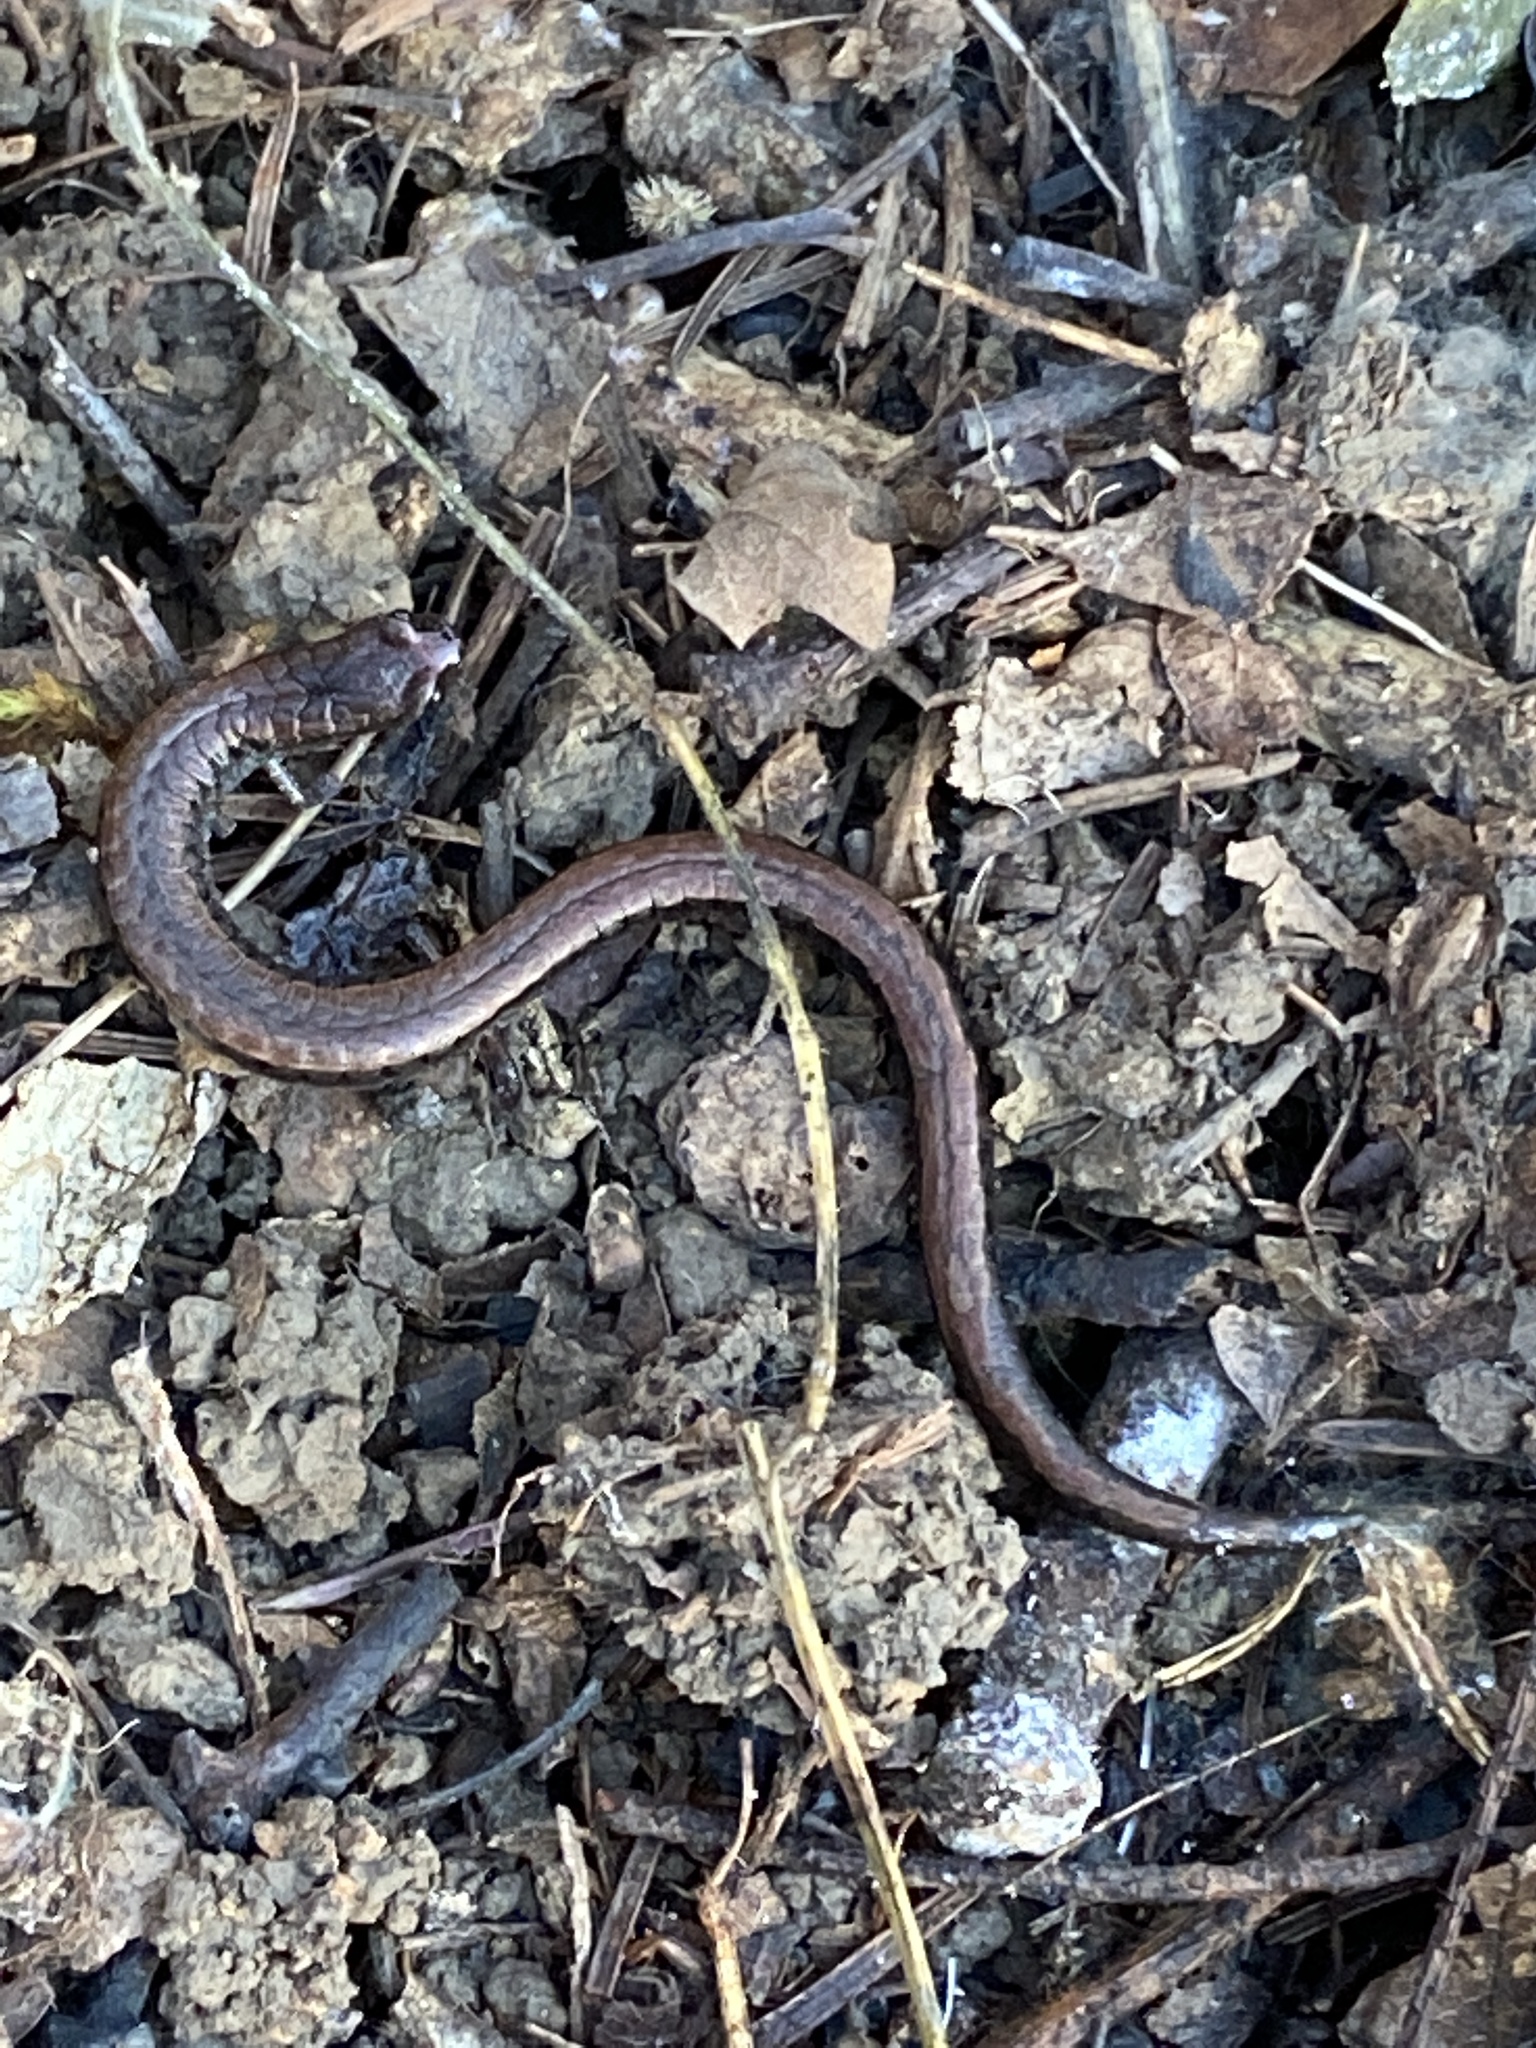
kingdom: Animalia
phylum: Chordata
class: Amphibia
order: Caudata
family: Plethodontidae
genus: Batrachoseps
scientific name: Batrachoseps attenuatus
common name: California slender salamander
